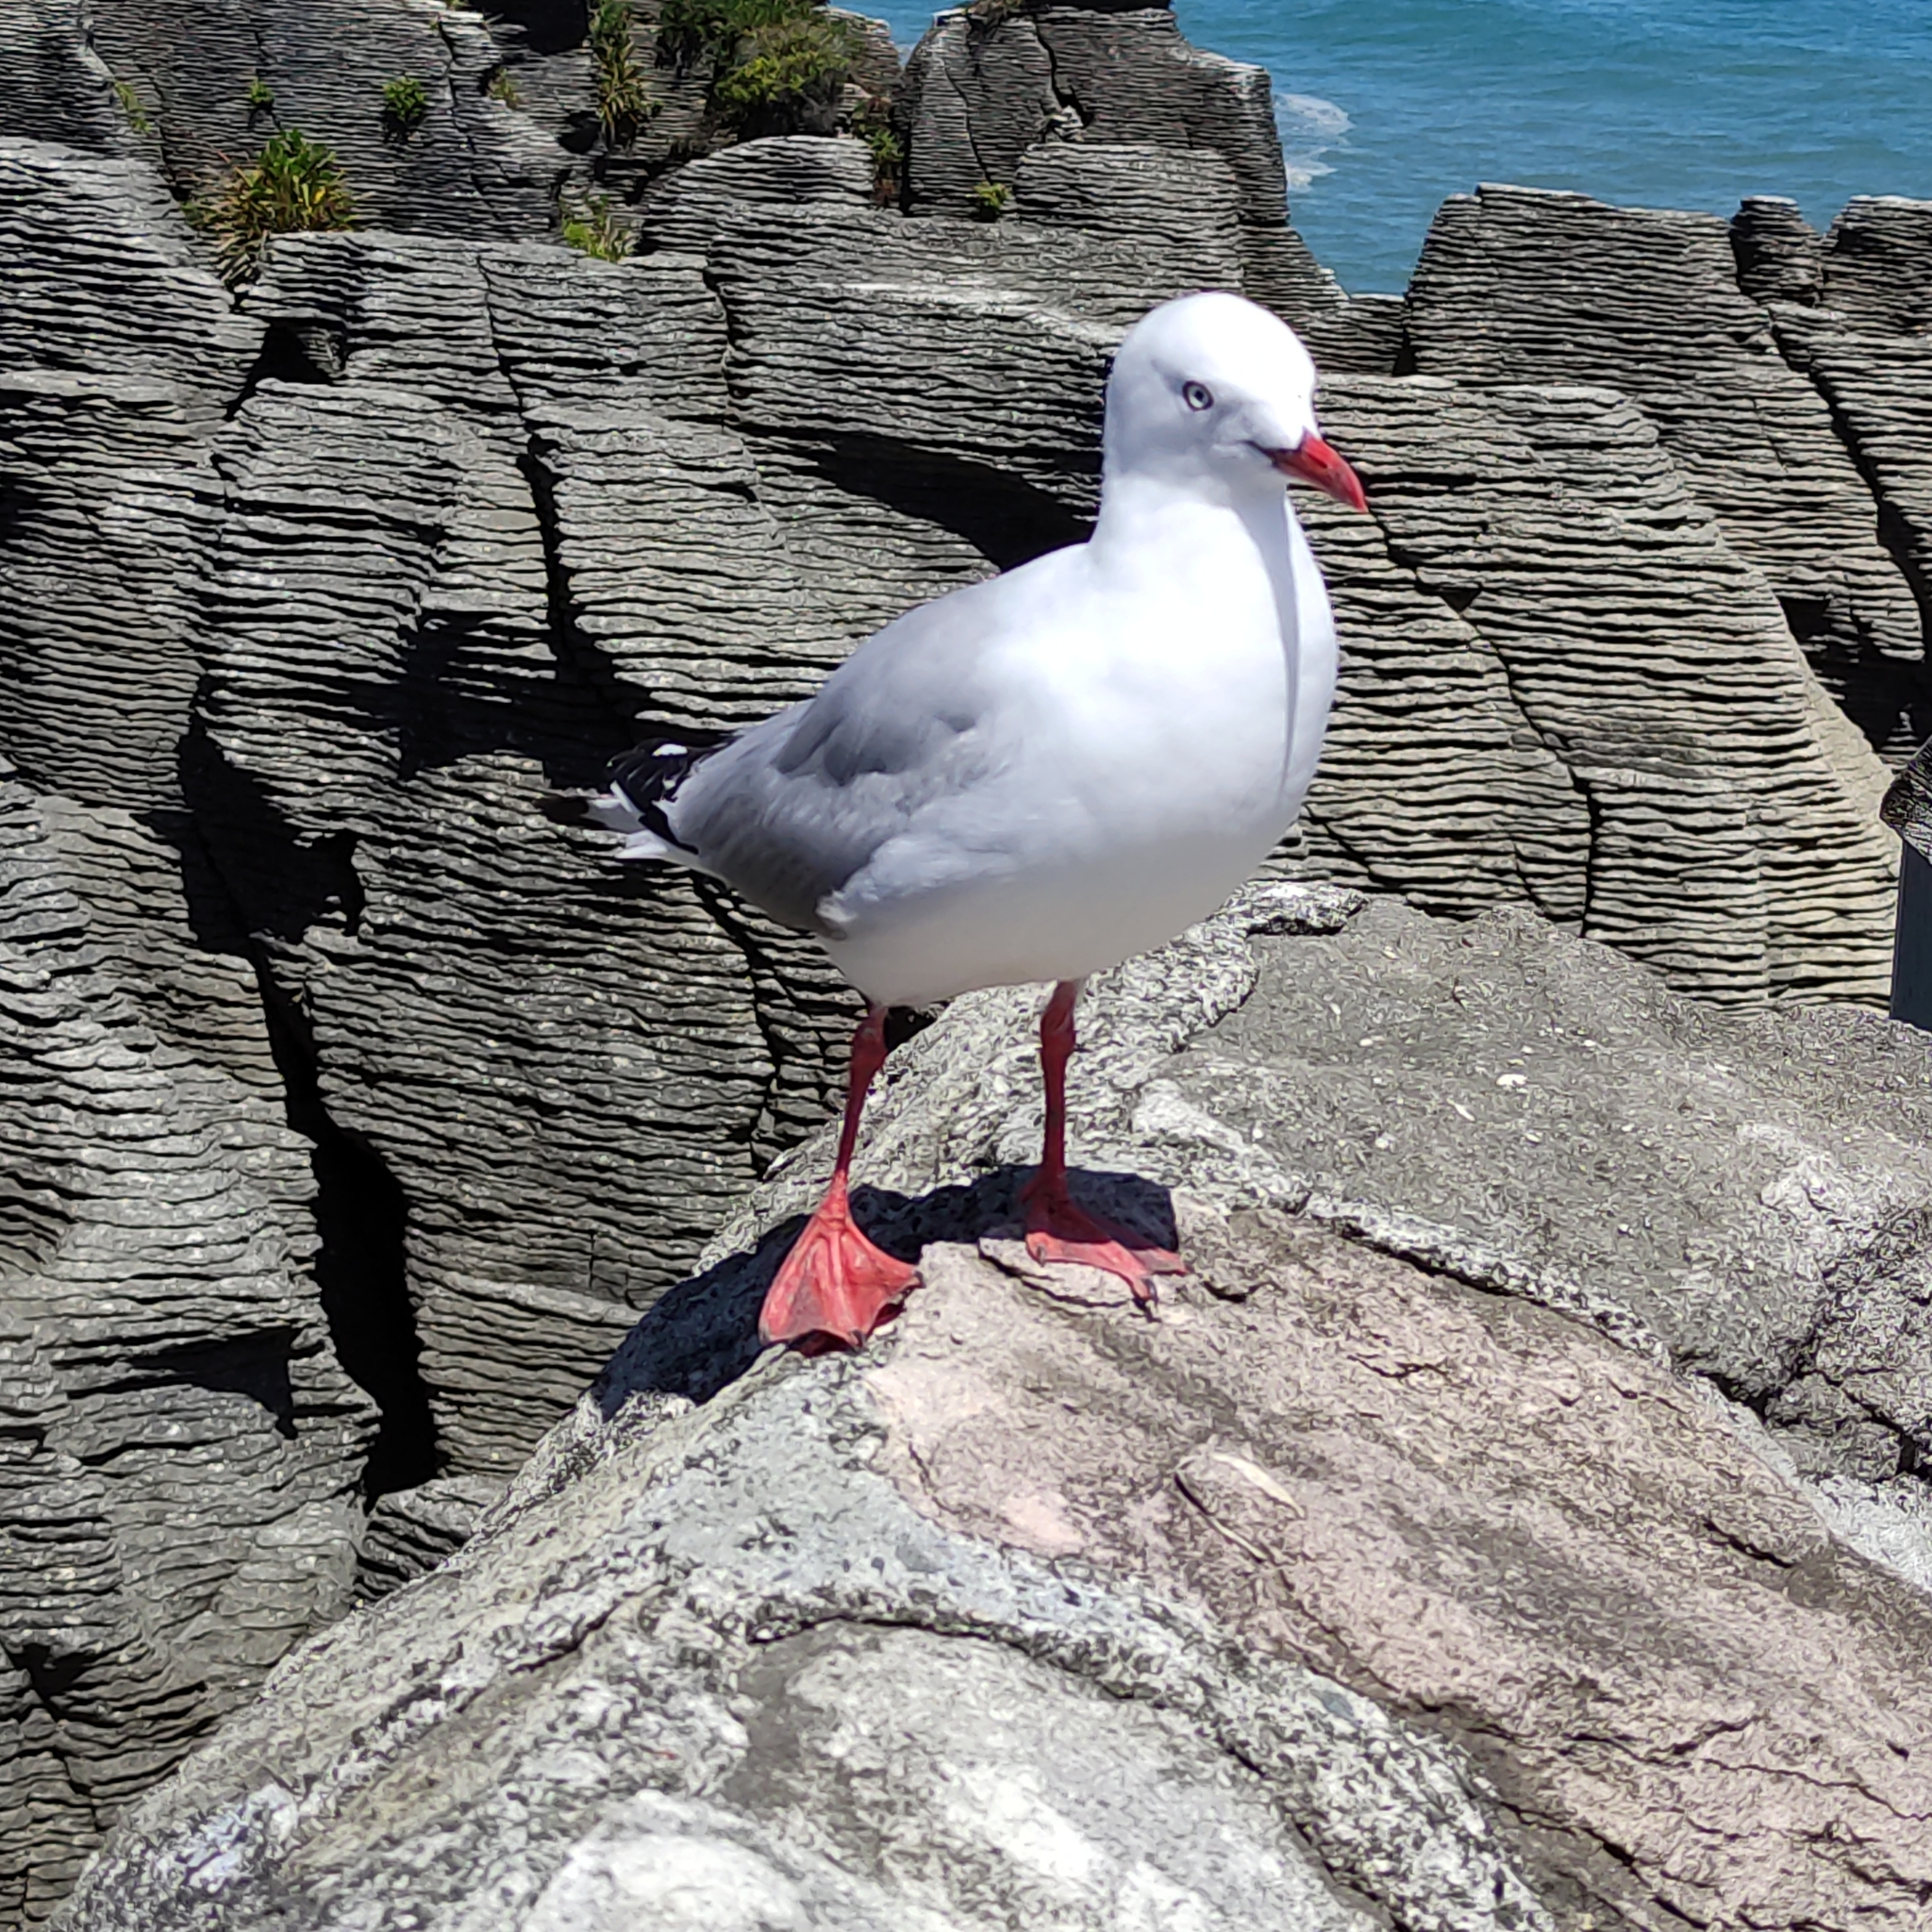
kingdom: Animalia
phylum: Chordata
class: Aves
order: Charadriiformes
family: Laridae
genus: Chroicocephalus
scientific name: Chroicocephalus novaehollandiae
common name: Silver gull
